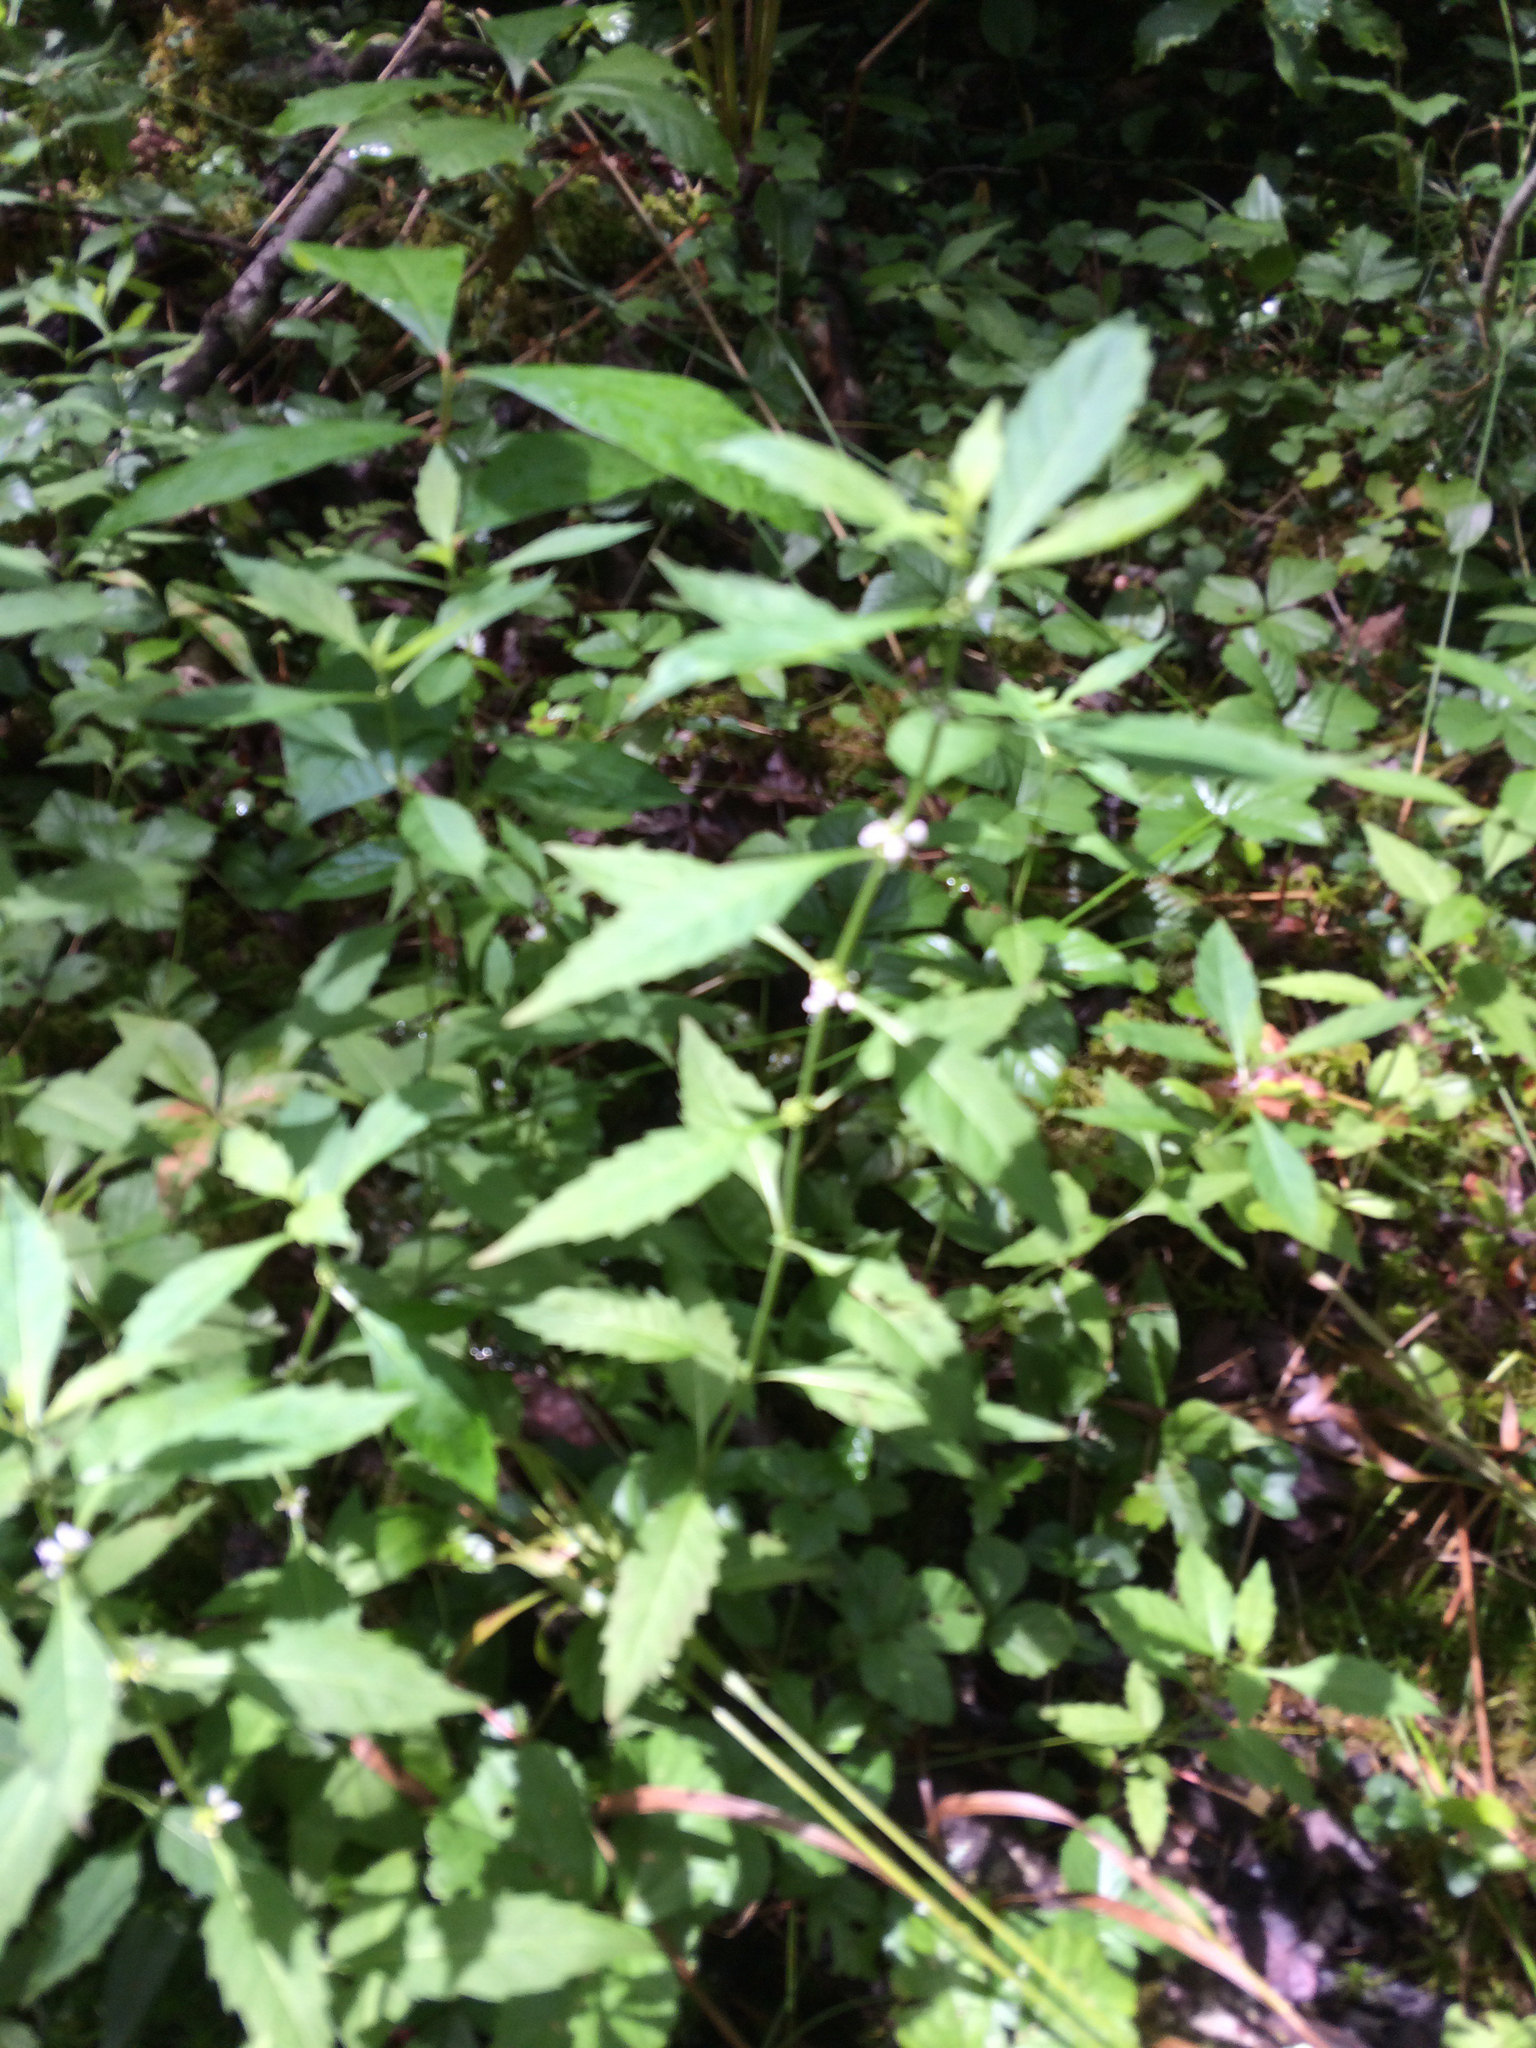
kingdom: Plantae
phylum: Tracheophyta
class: Magnoliopsida
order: Lamiales
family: Lamiaceae
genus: Lycopus
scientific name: Lycopus uniflorus
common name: Northern bugleweed
